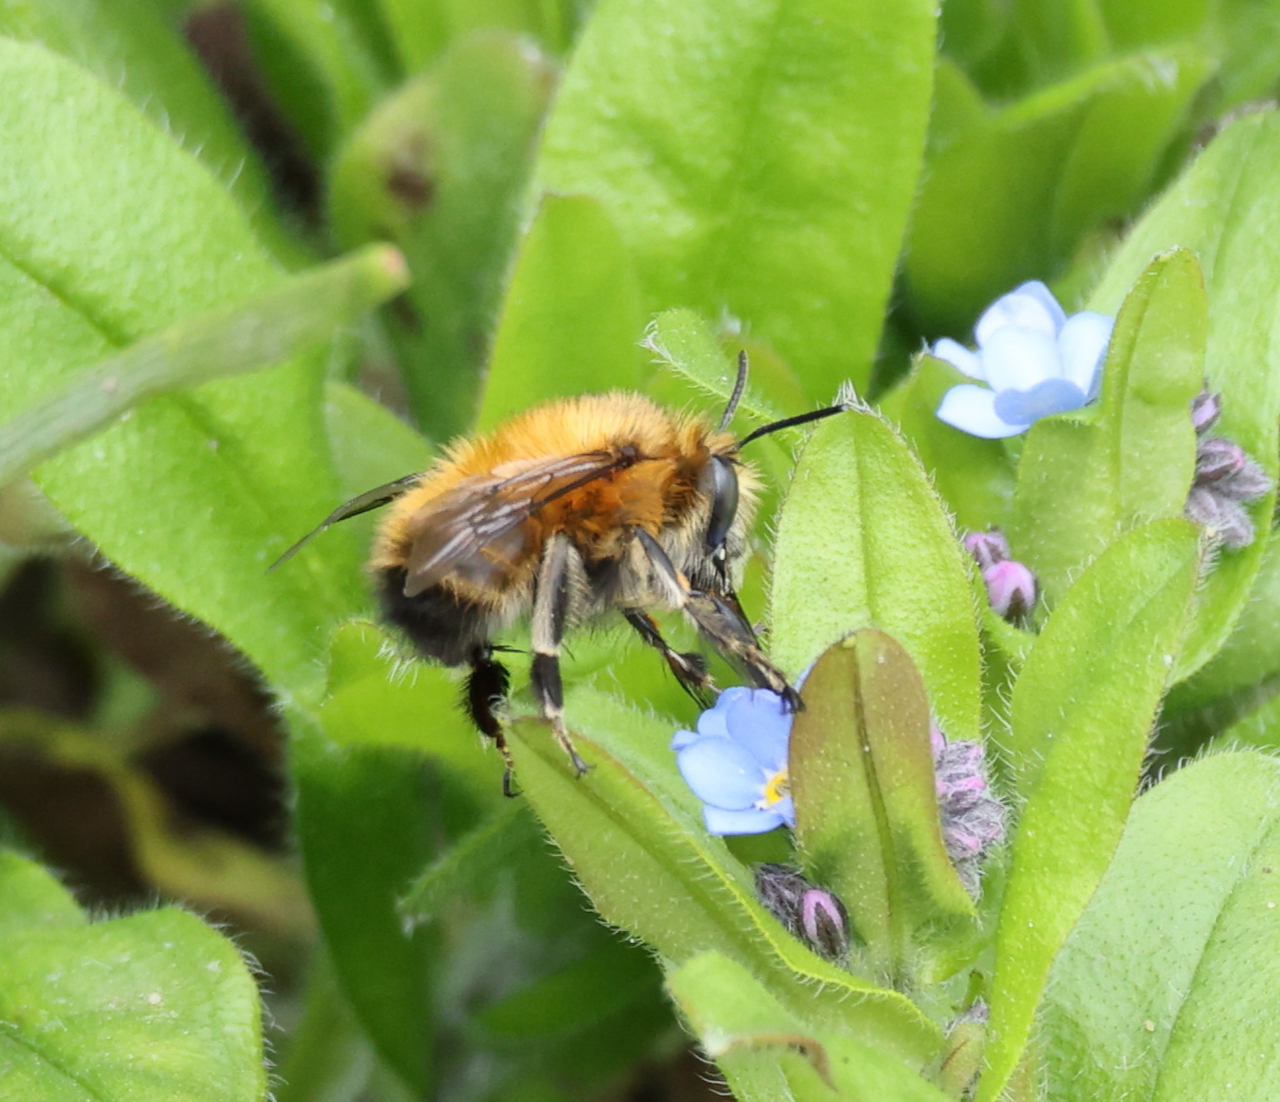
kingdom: Animalia
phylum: Arthropoda
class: Insecta
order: Hymenoptera
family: Apidae
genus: Anthophora
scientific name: Anthophora plumipes
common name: Hairy-footed flower bee
